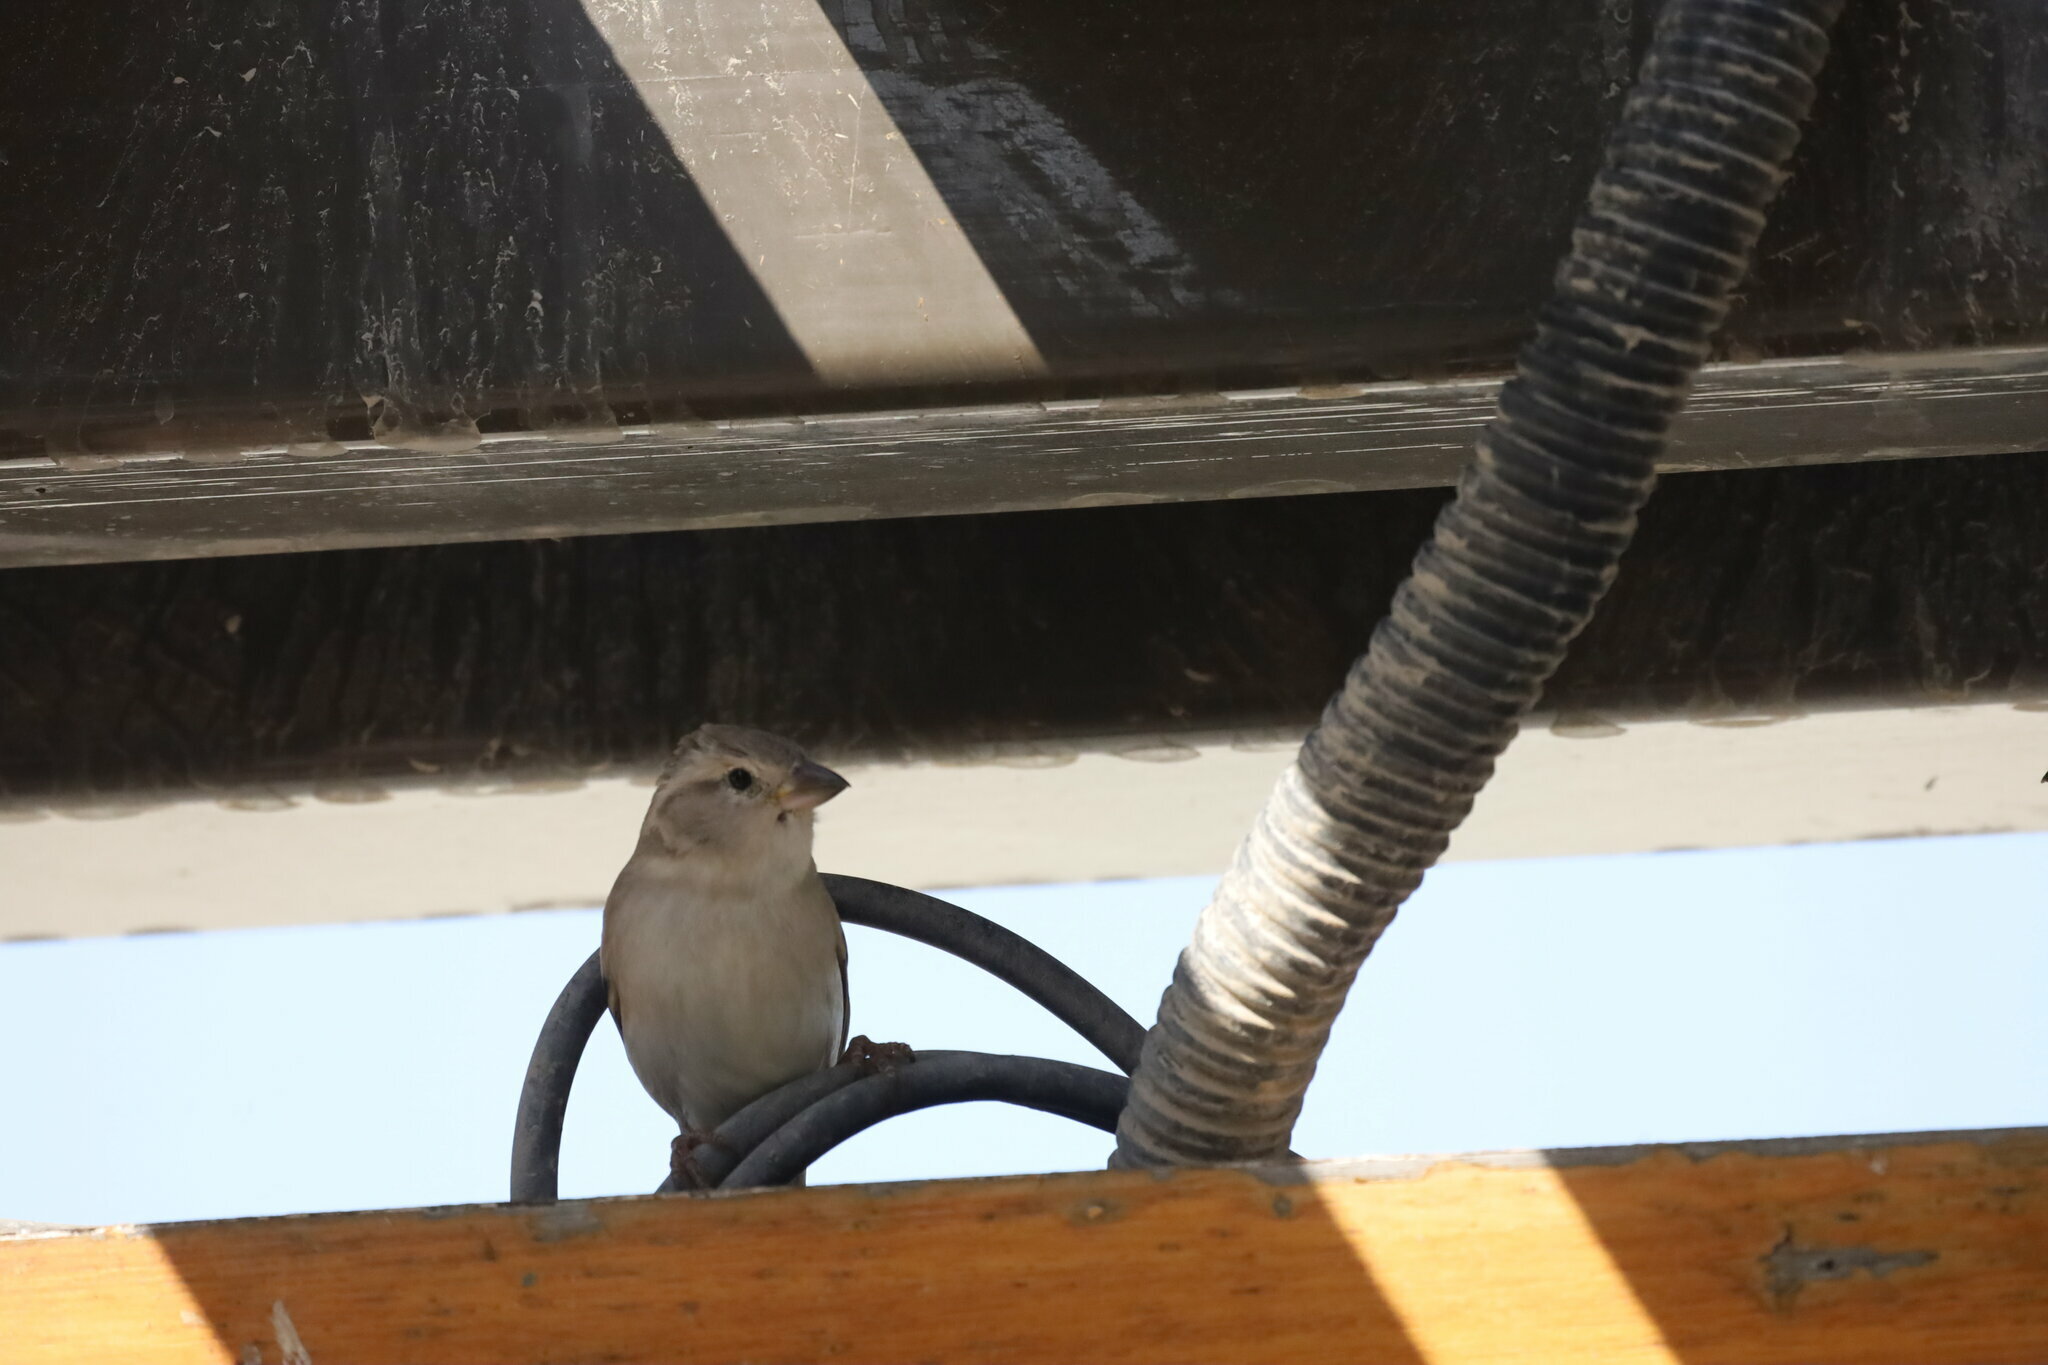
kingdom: Animalia
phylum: Chordata
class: Aves
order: Passeriformes
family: Passeridae
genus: Passer
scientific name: Passer domesticus
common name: House sparrow
